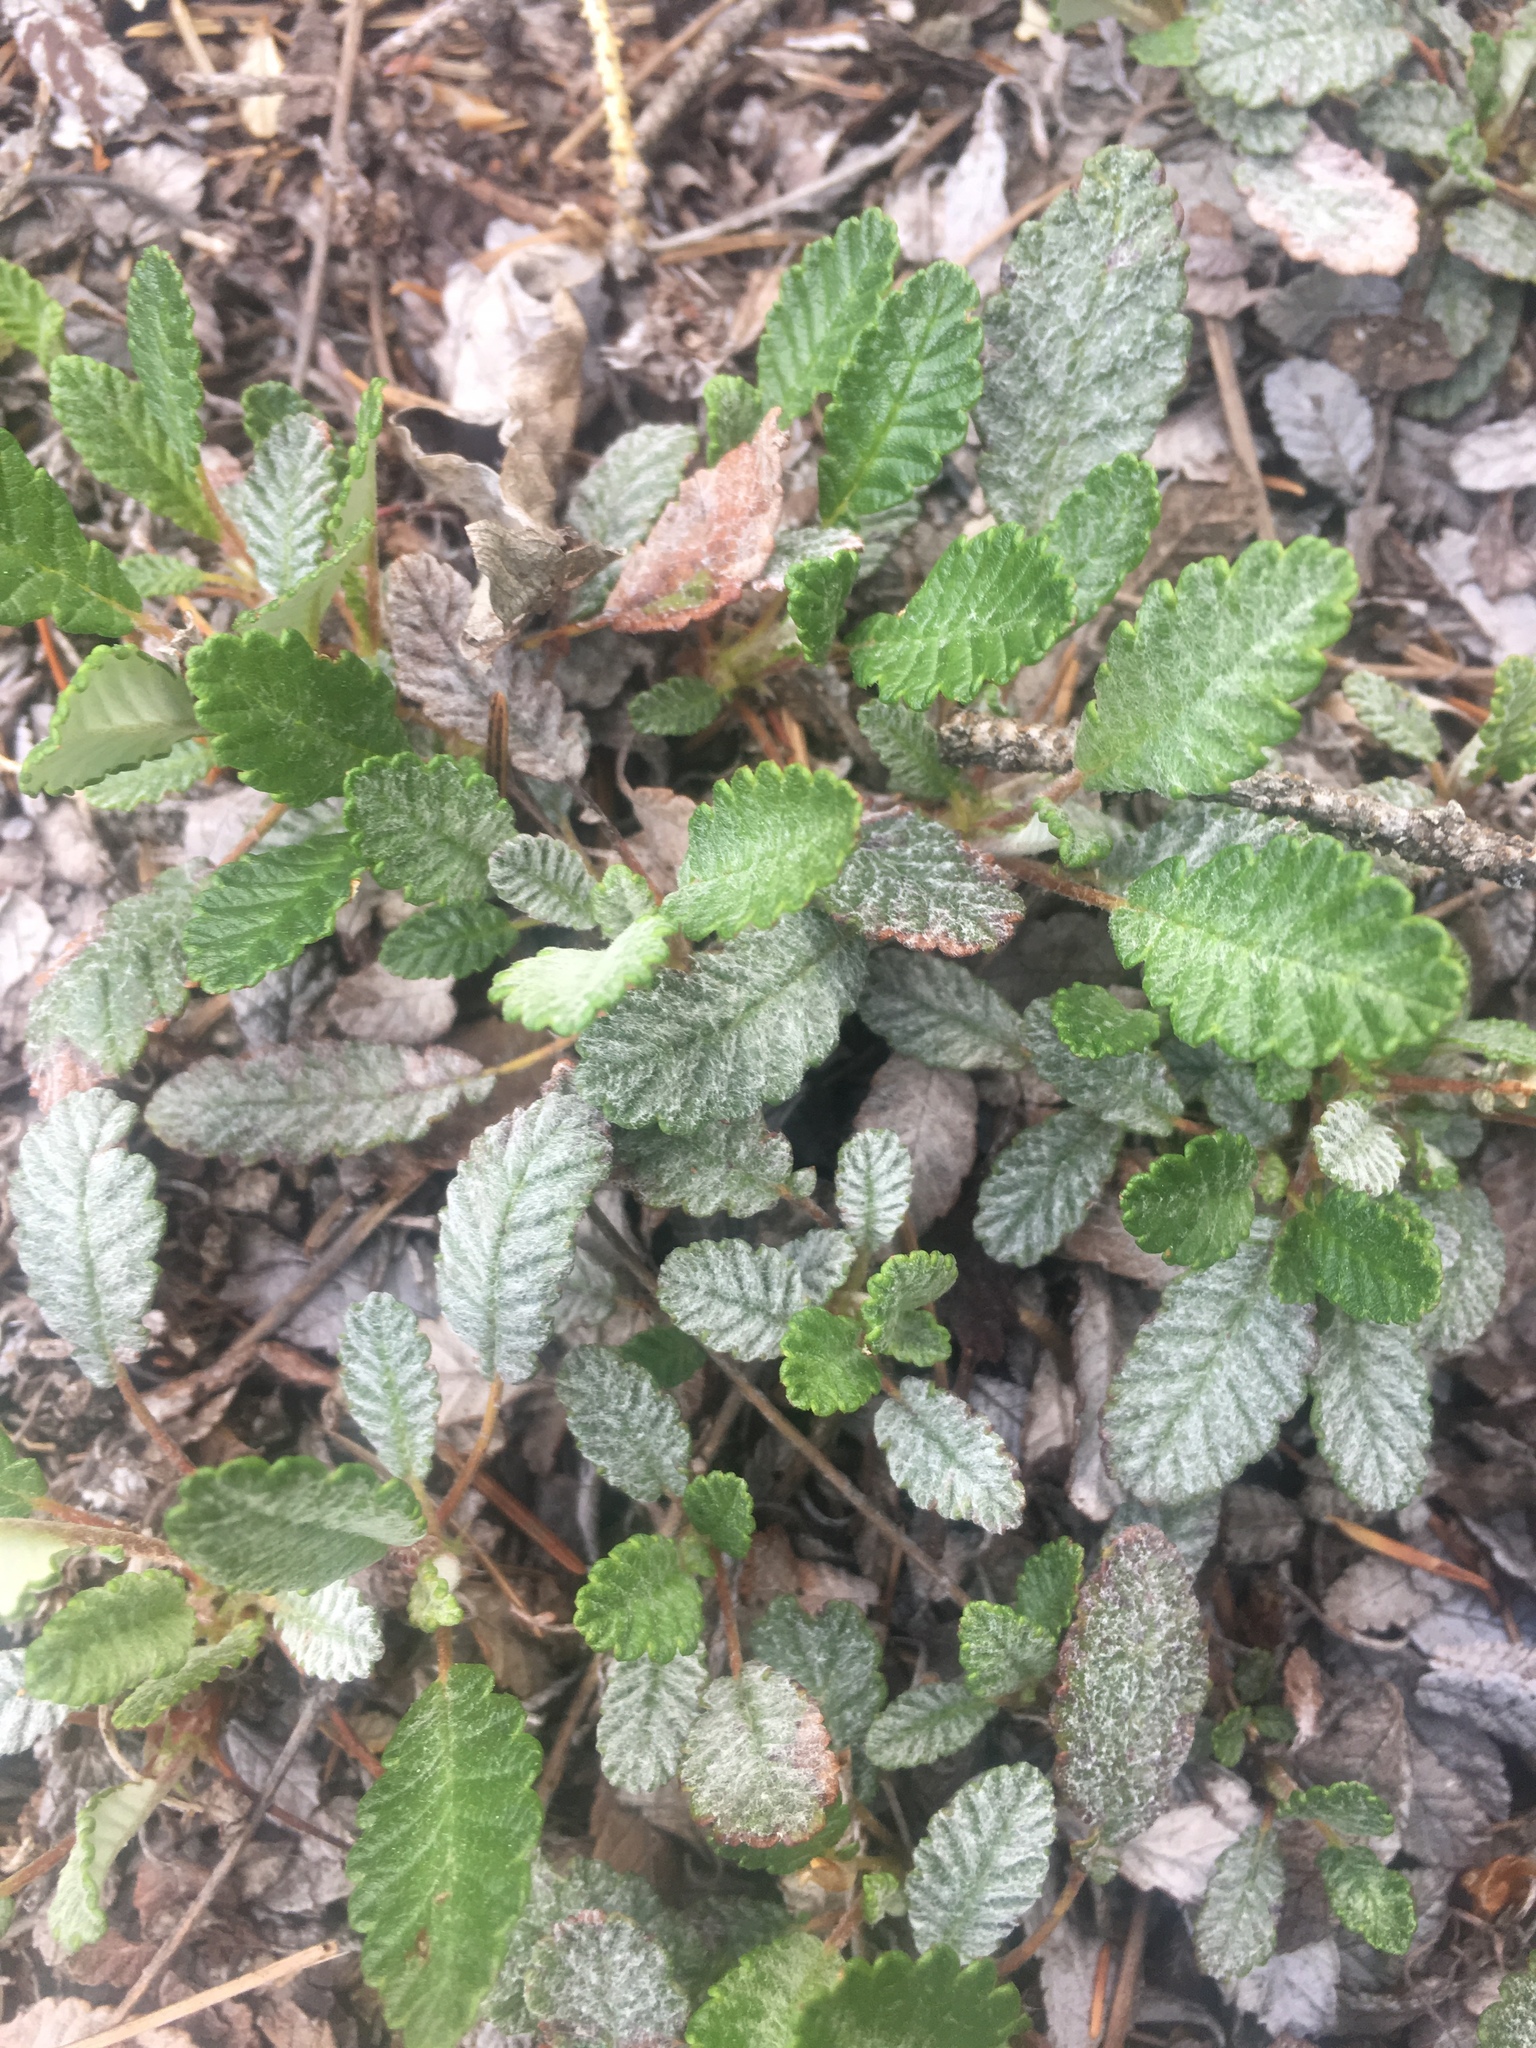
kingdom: Plantae
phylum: Tracheophyta
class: Magnoliopsida
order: Rosales
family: Rosaceae
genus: Dryas
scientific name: Dryas drummondii
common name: Drummond's dryad
